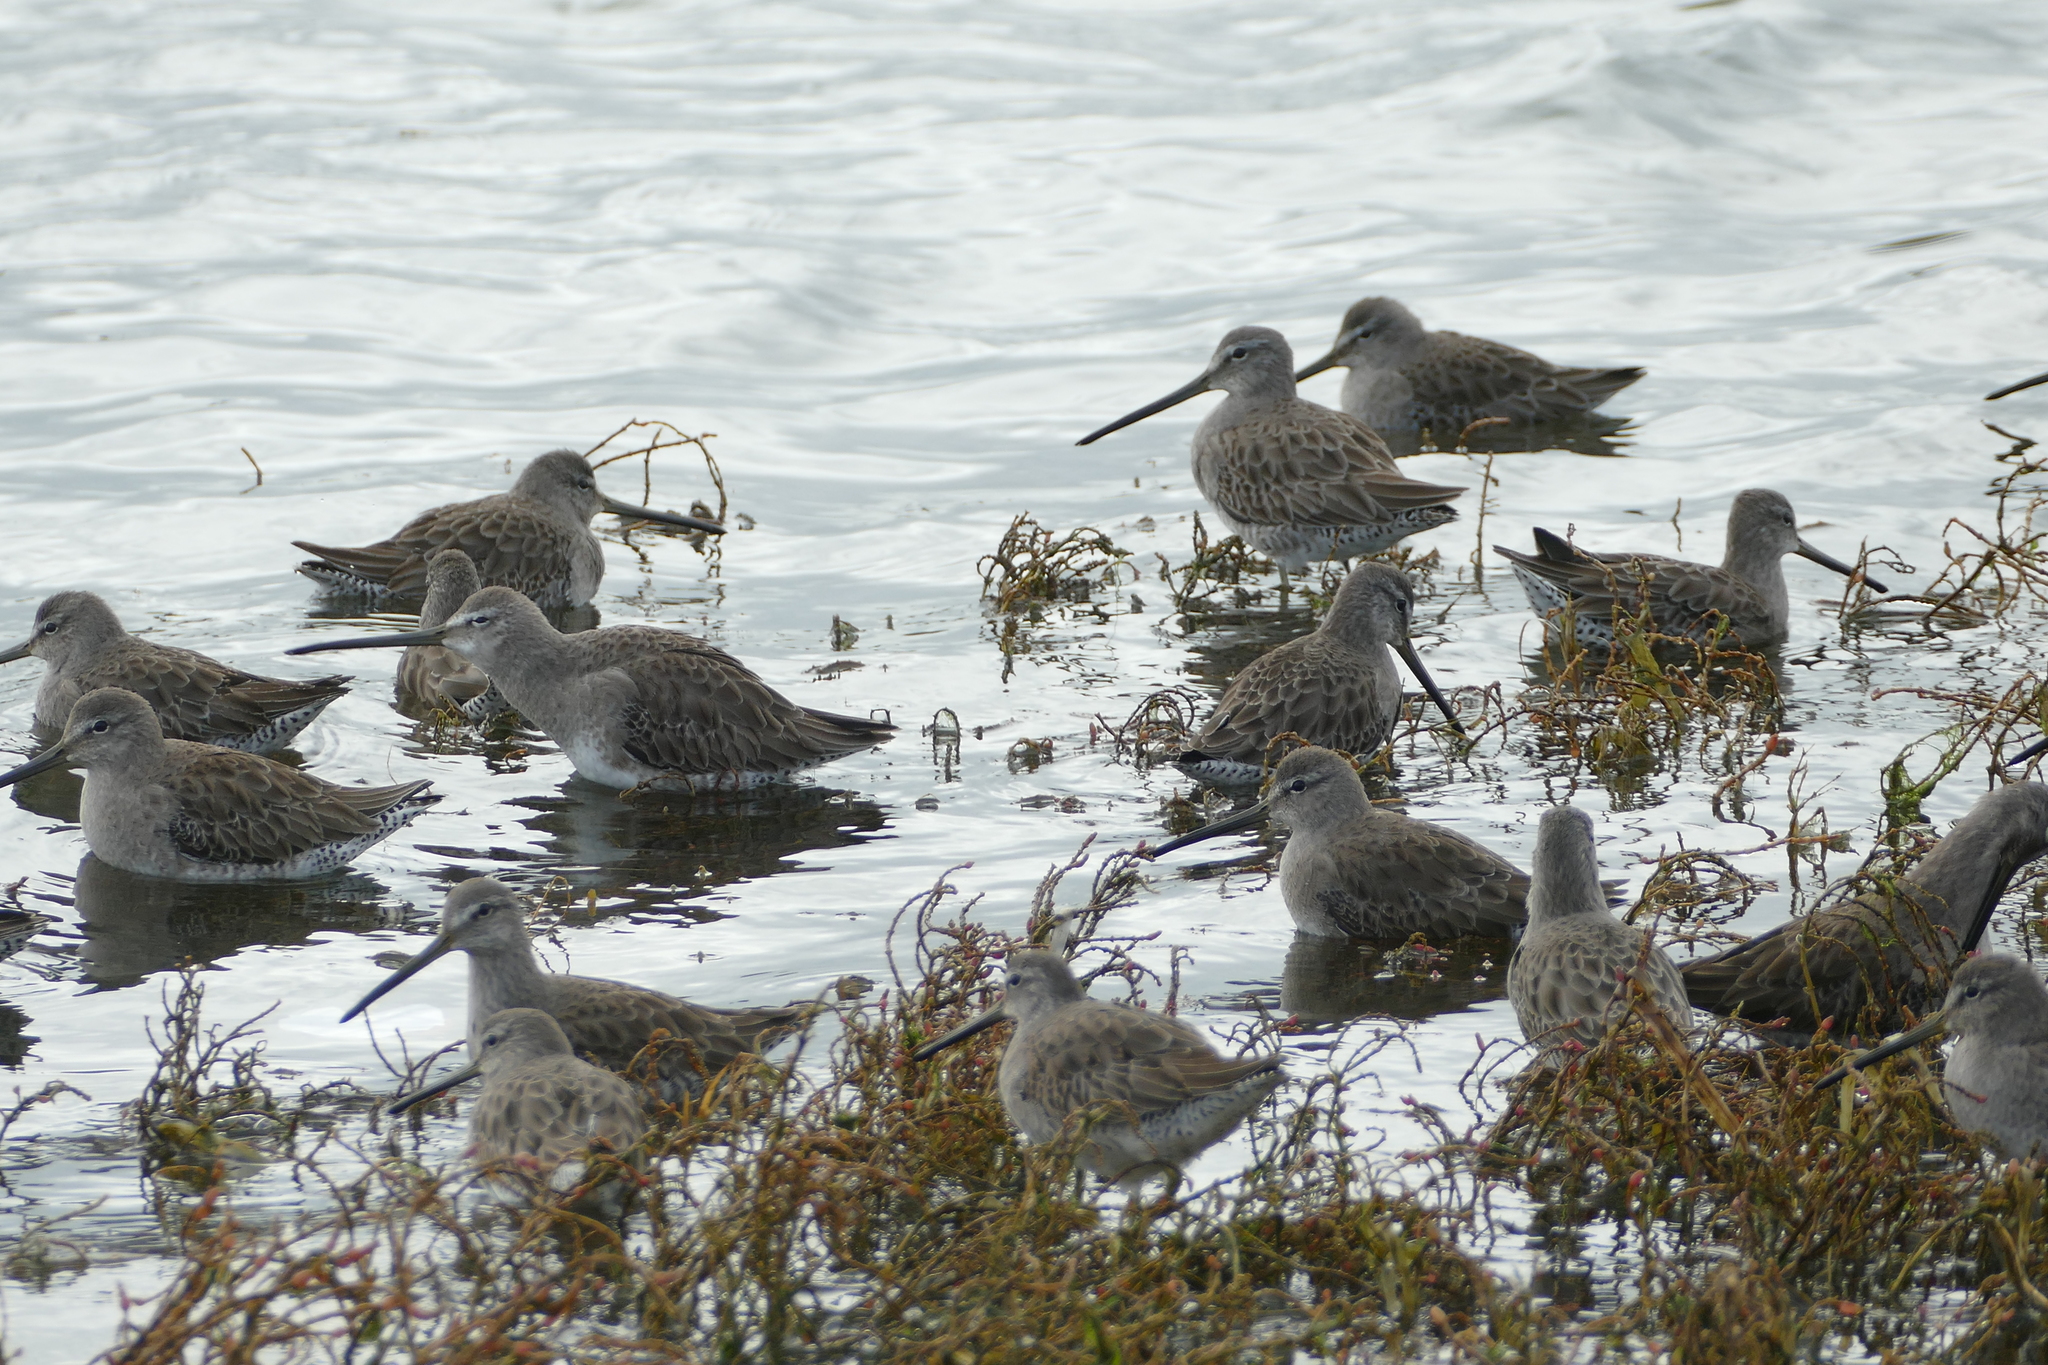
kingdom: Animalia
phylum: Chordata
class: Aves
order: Charadriiformes
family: Scolopacidae
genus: Limnodromus
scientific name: Limnodromus scolopaceus
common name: Long-billed dowitcher
